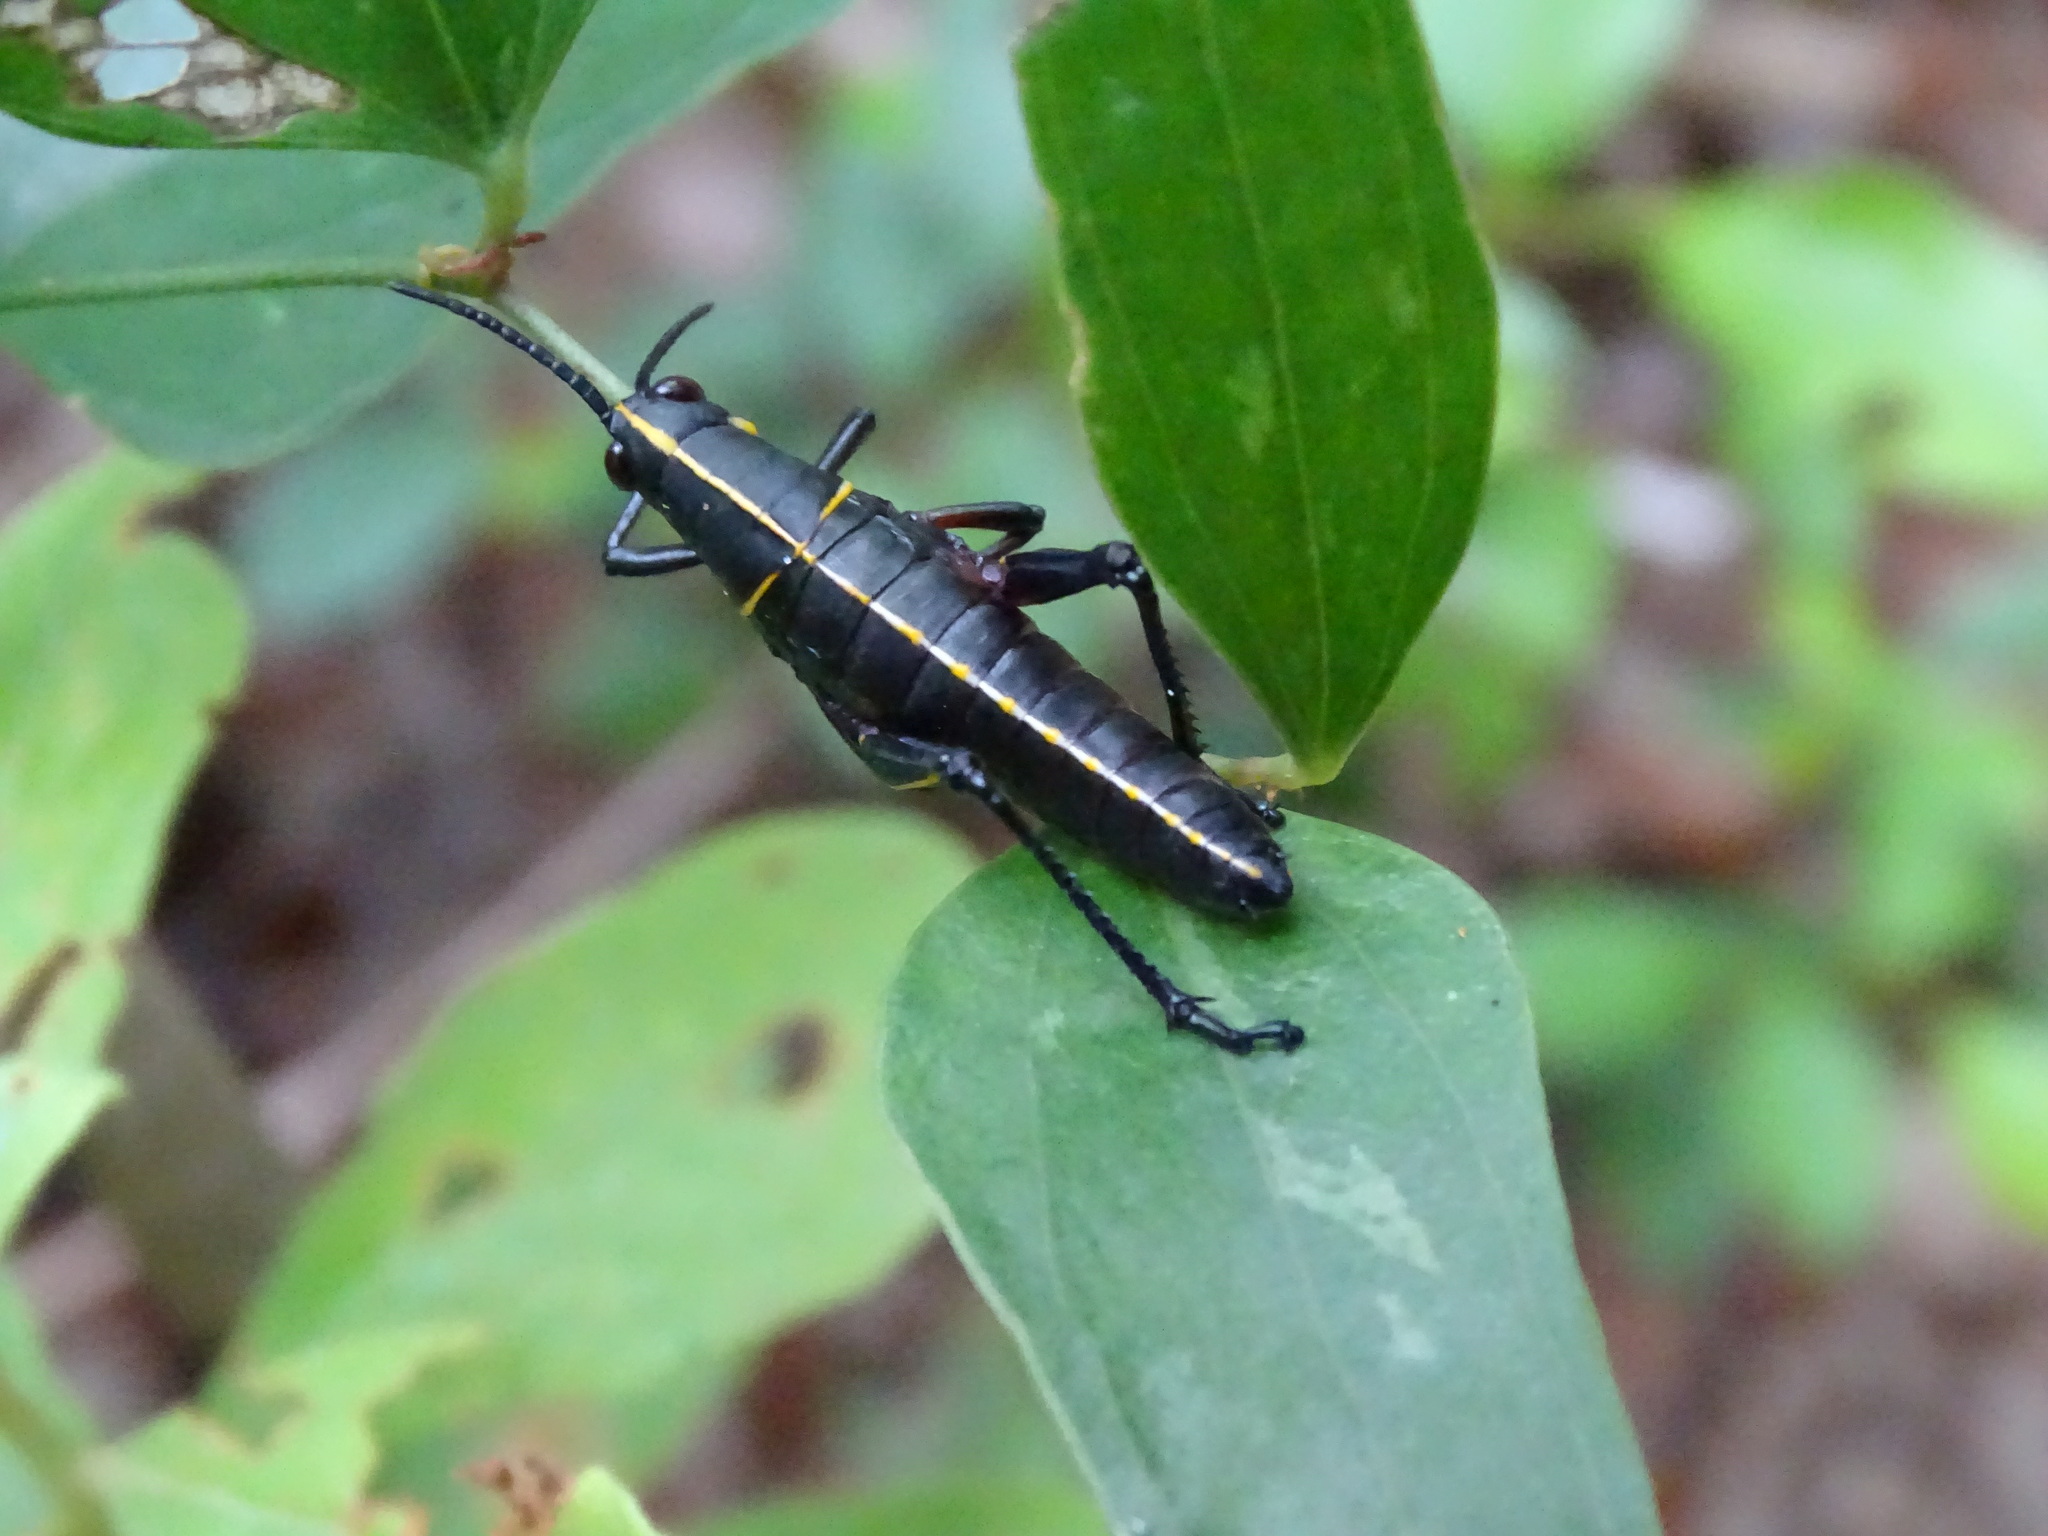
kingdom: Animalia
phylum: Arthropoda
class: Insecta
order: Orthoptera
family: Romaleidae
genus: Romalea
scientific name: Romalea microptera
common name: Eastern lubber grasshopper
